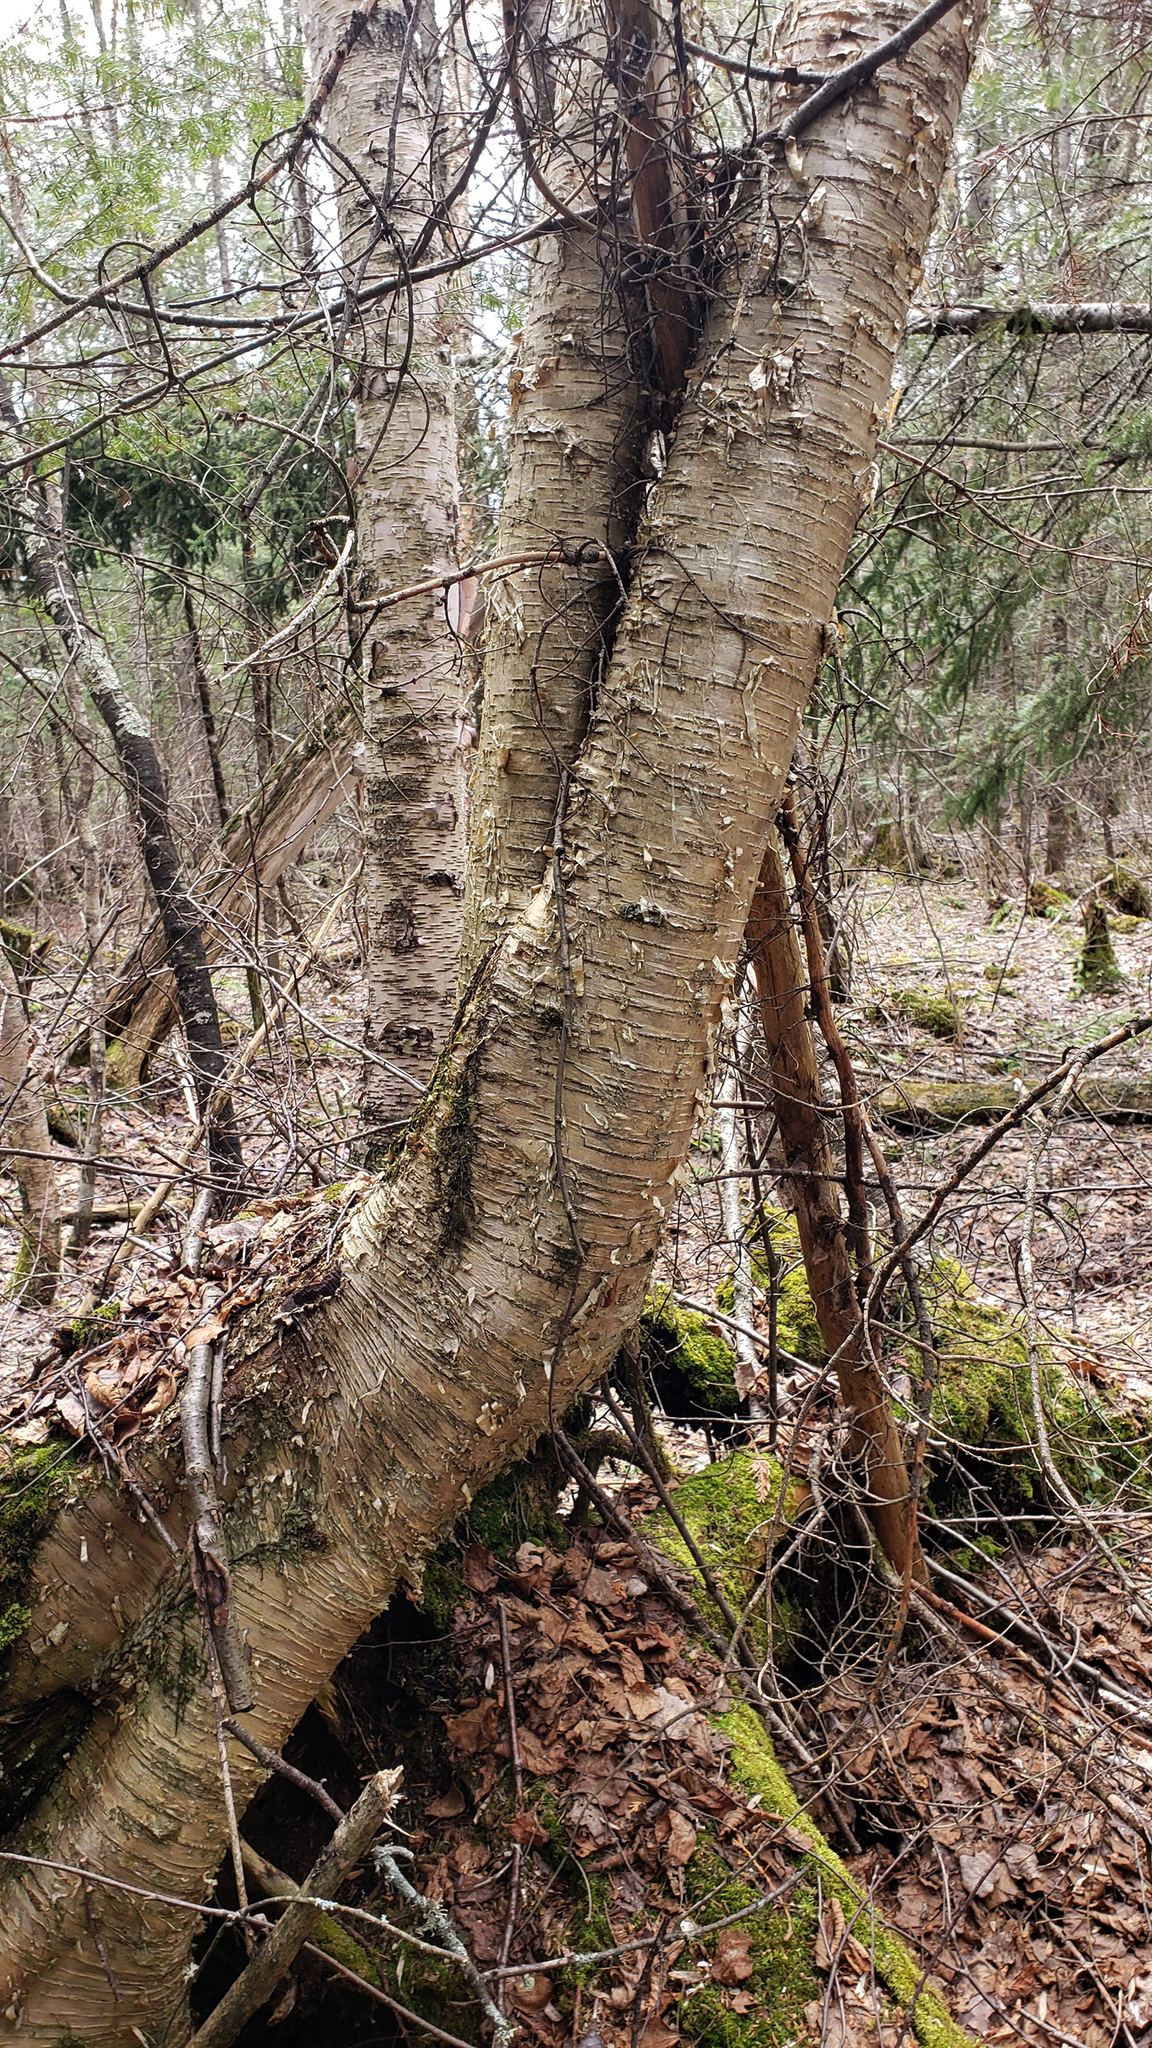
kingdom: Plantae
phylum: Tracheophyta
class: Magnoliopsida
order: Fagales
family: Betulaceae
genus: Betula
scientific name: Betula alleghaniensis
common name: Yellow birch
